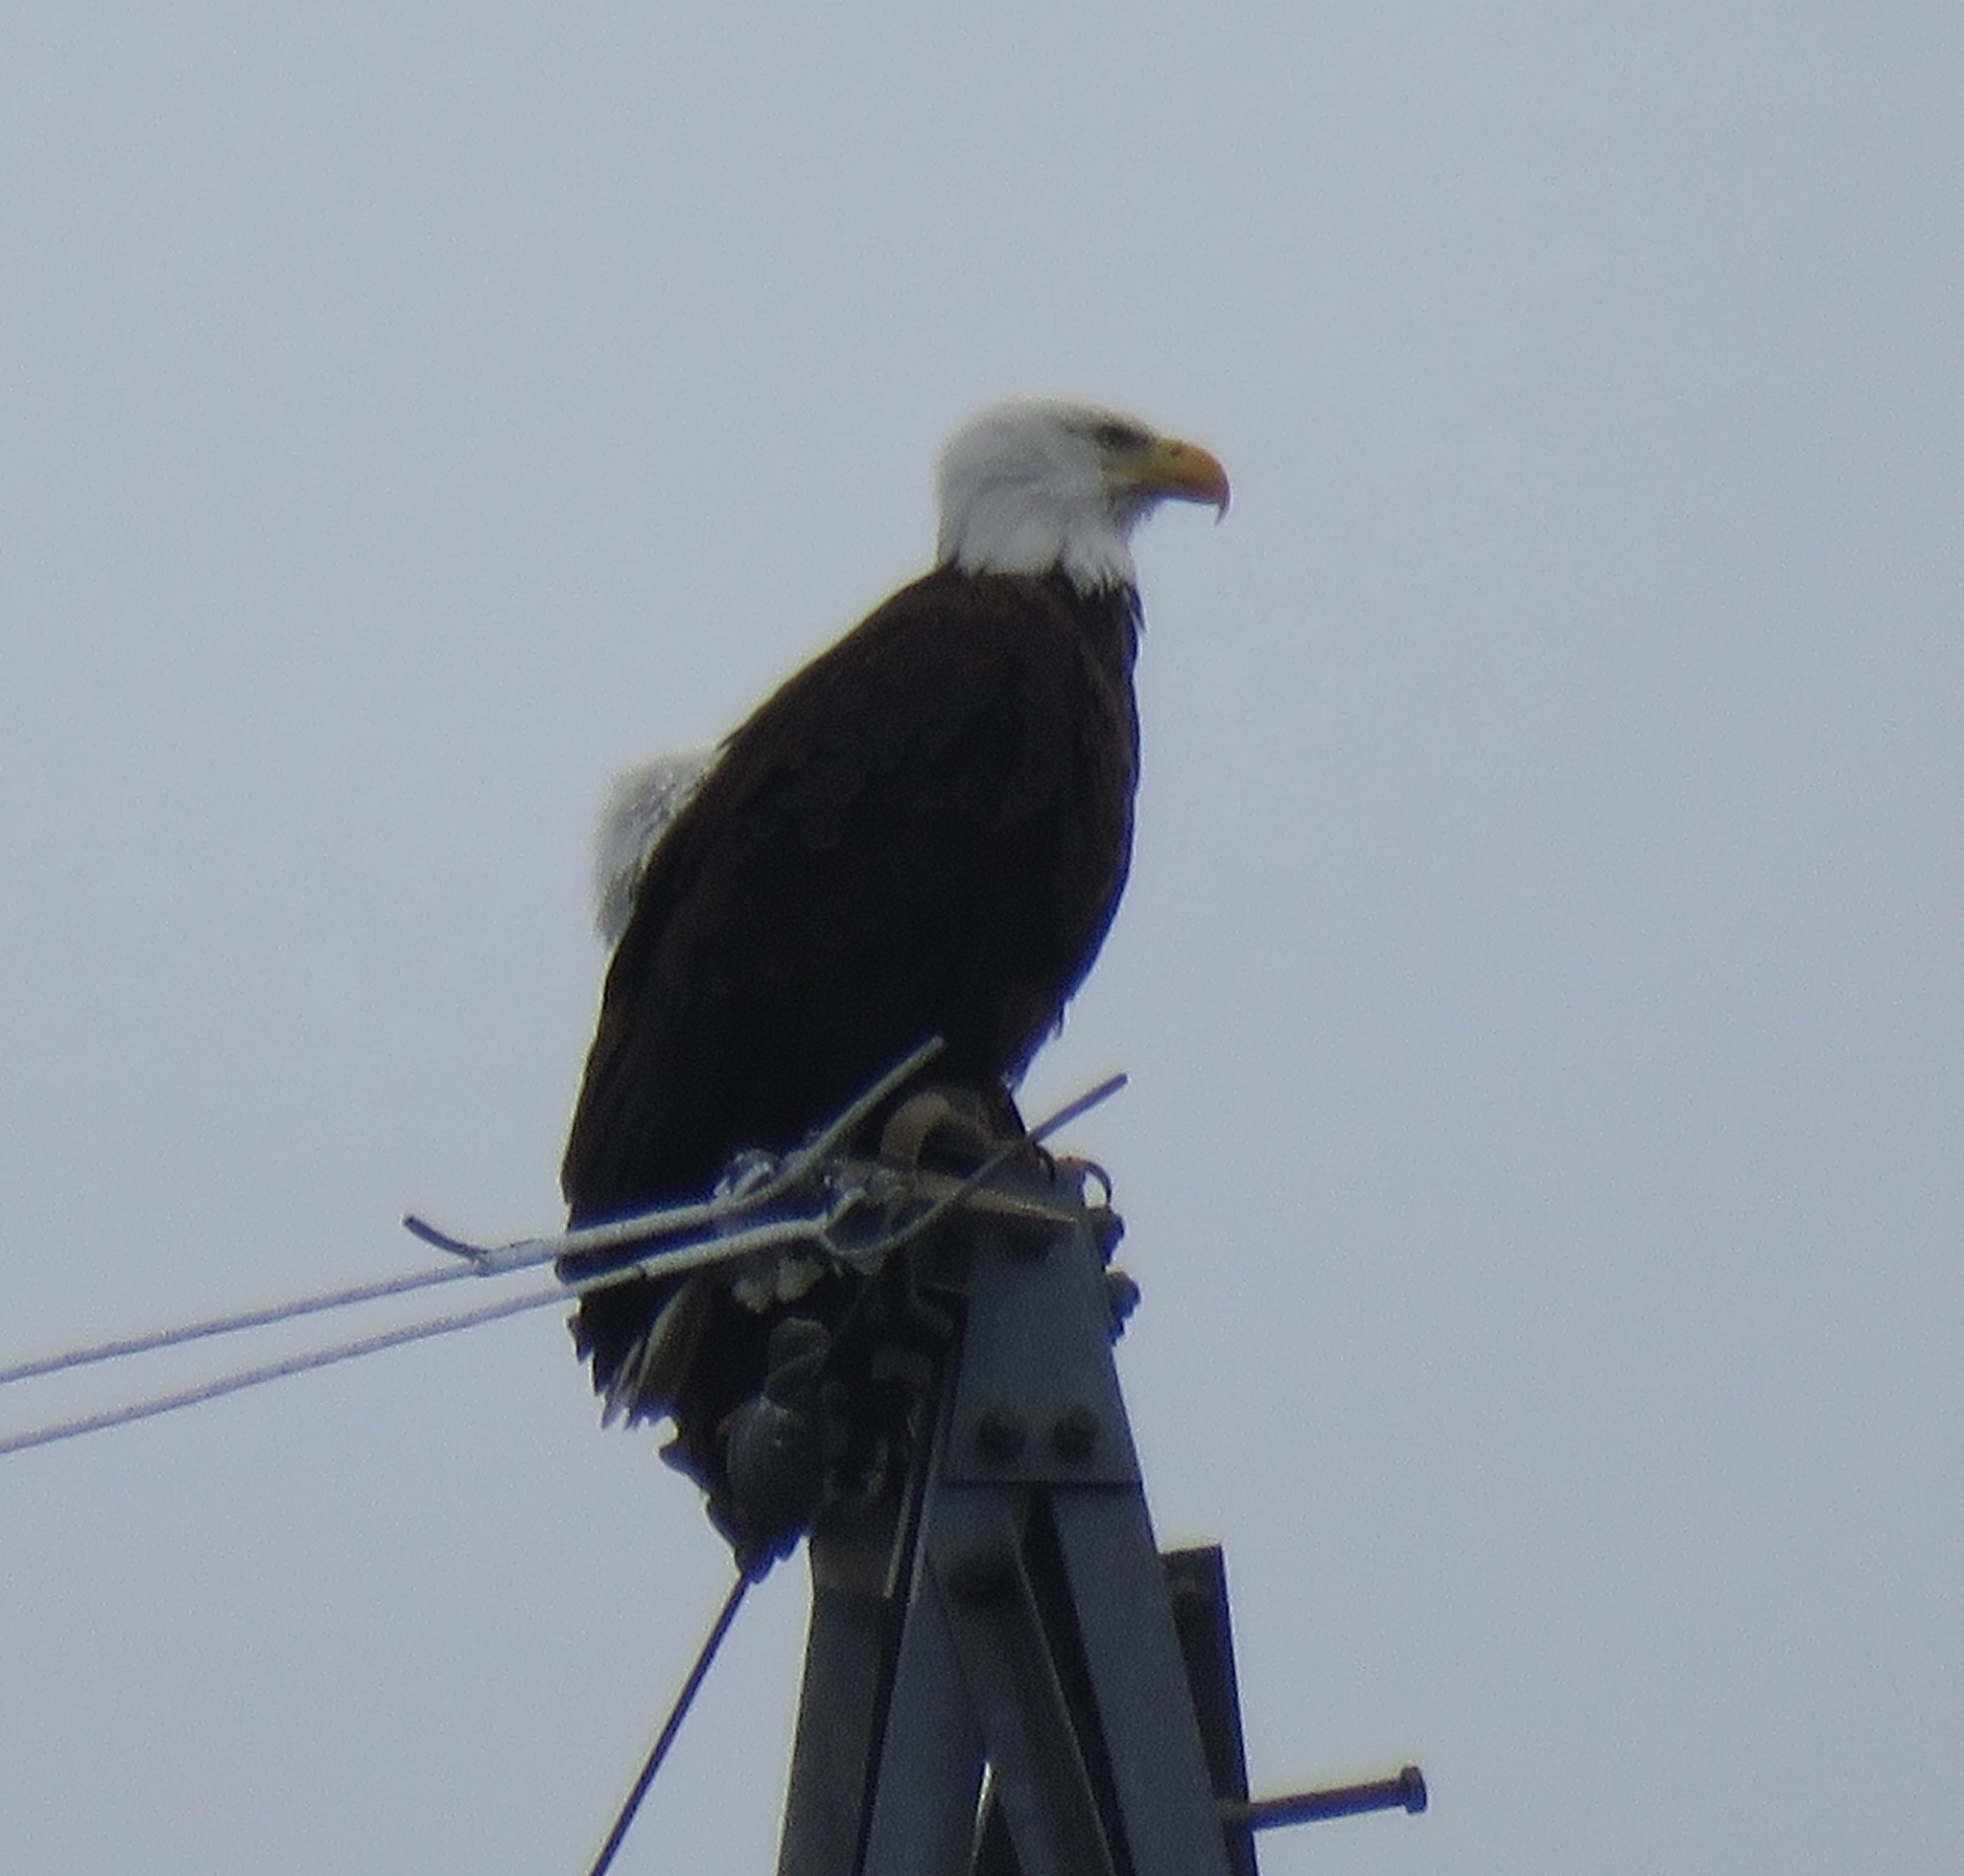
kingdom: Animalia
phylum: Chordata
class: Aves
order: Accipitriformes
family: Accipitridae
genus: Haliaeetus
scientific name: Haliaeetus leucocephalus
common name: Bald eagle
